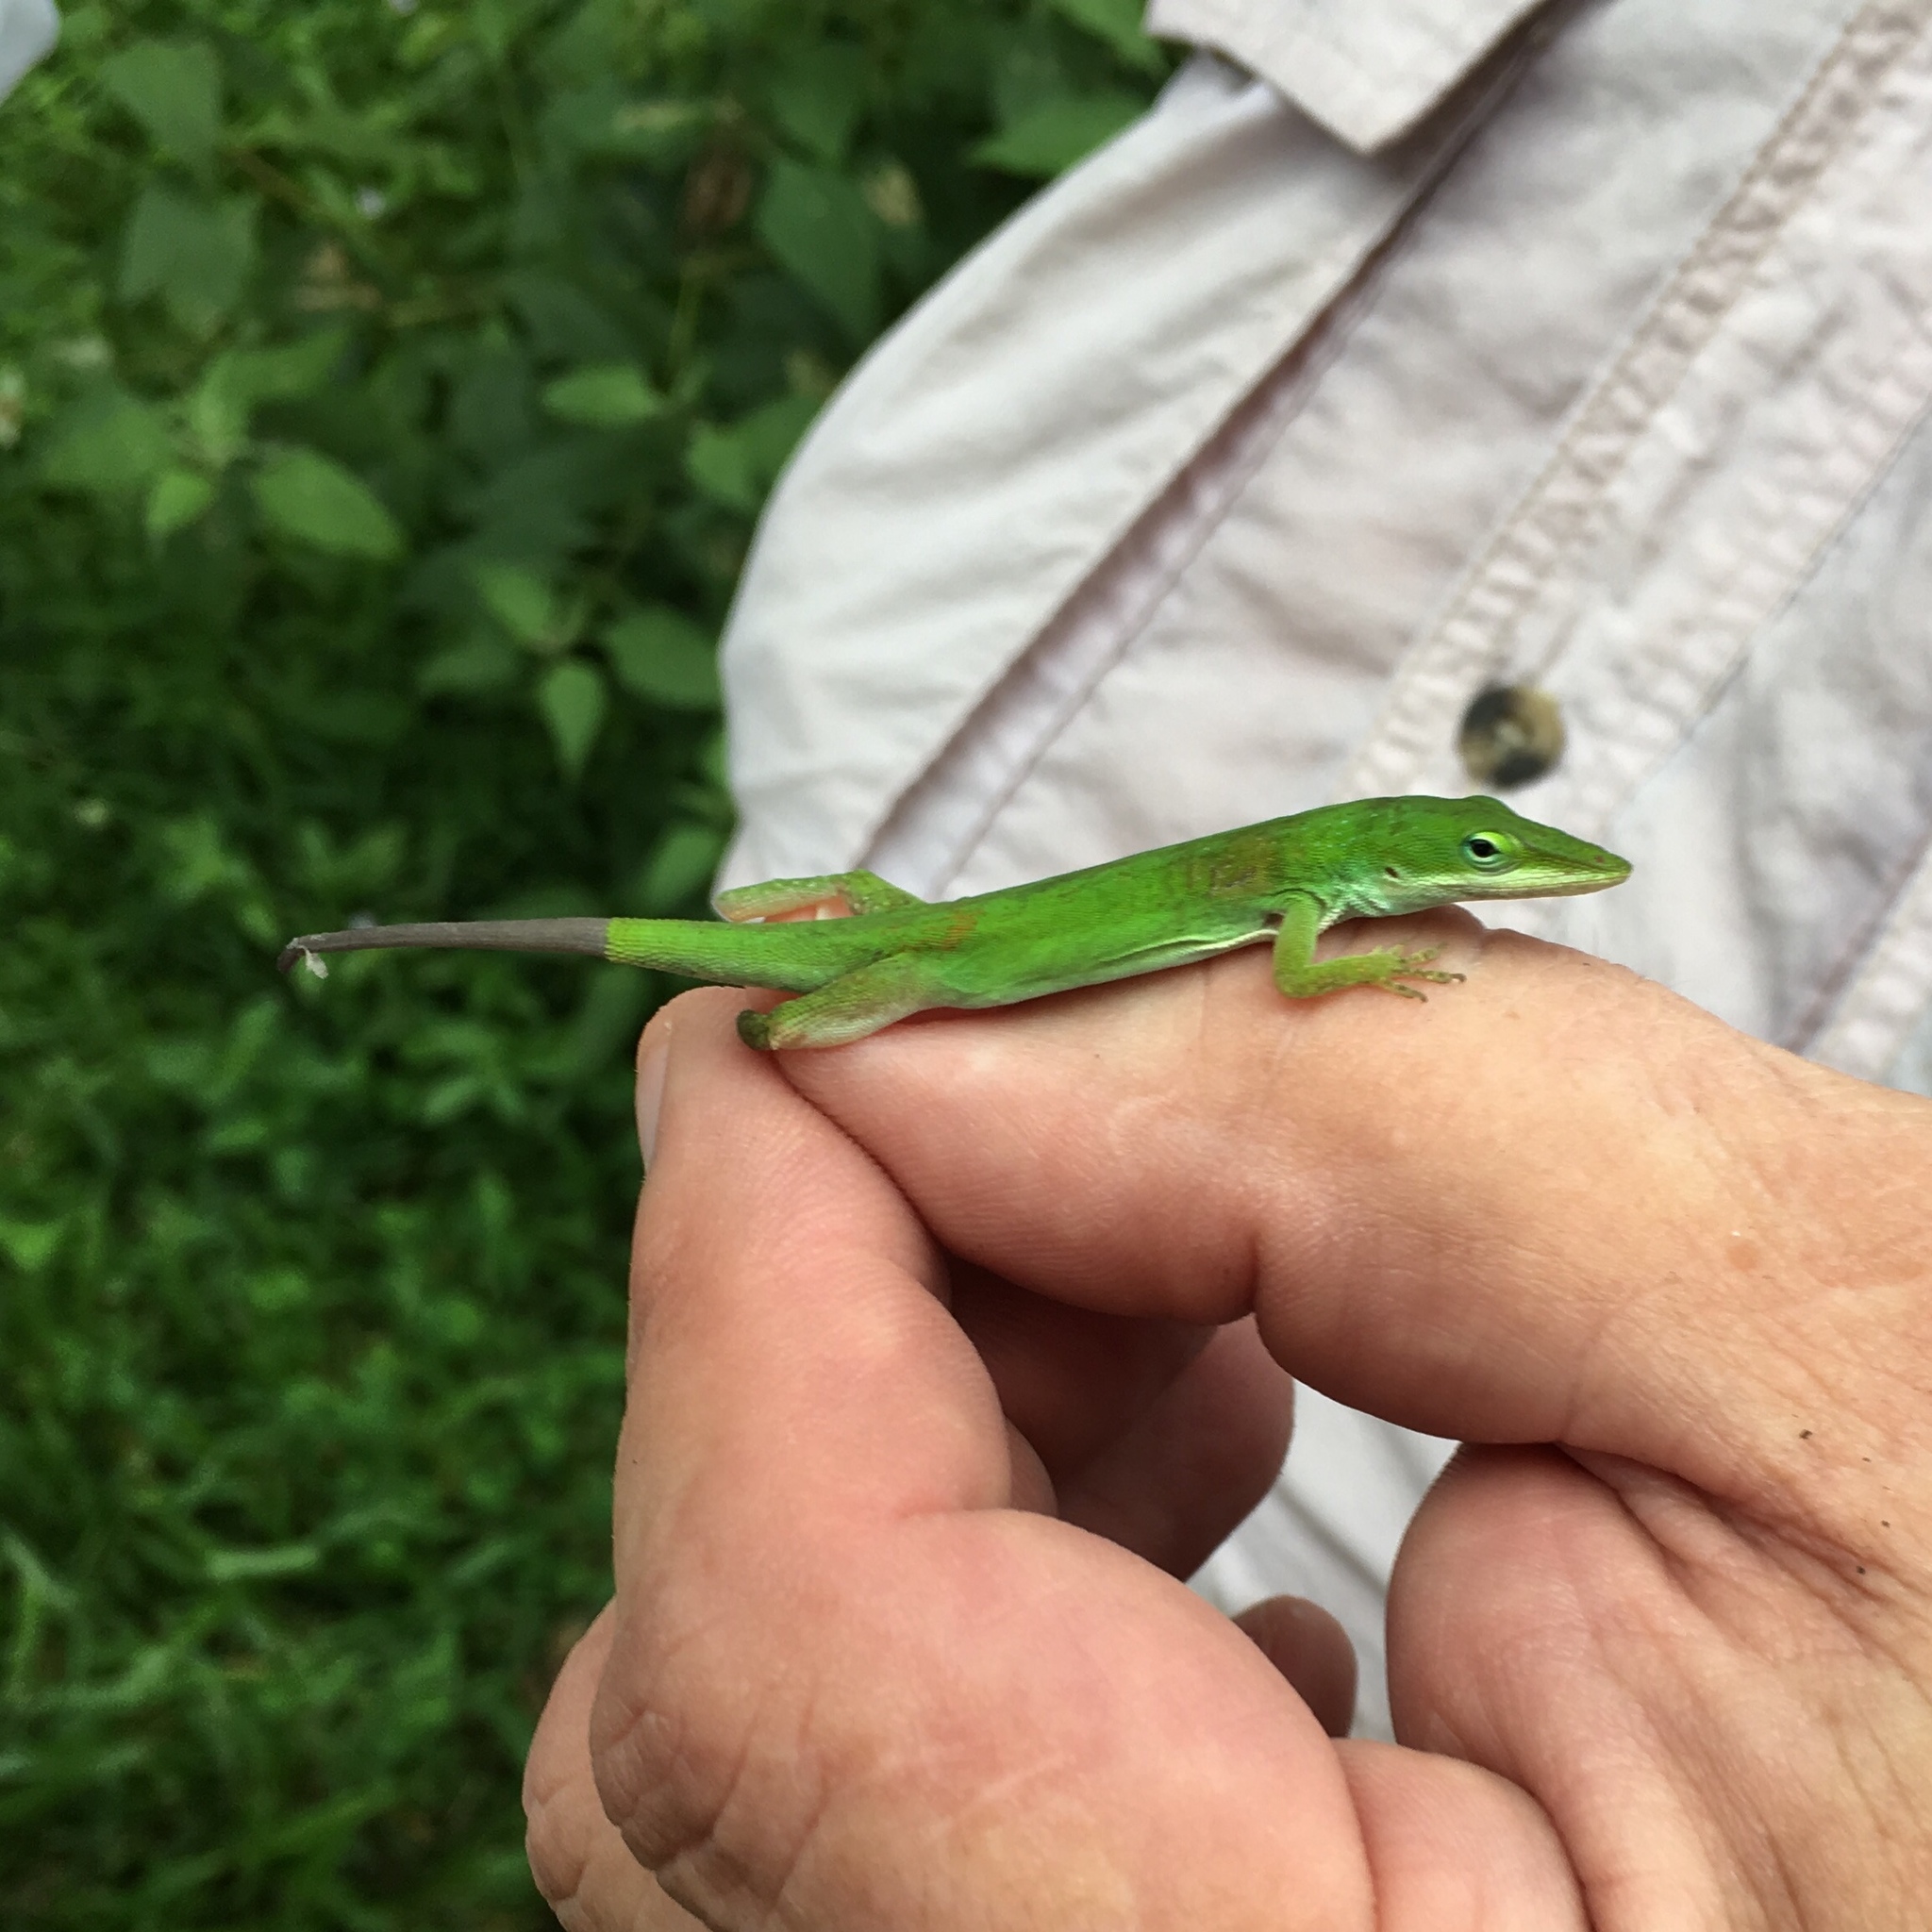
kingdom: Animalia
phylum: Chordata
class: Squamata
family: Dactyloidae
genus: Anolis
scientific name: Anolis carolinensis
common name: Green anole
